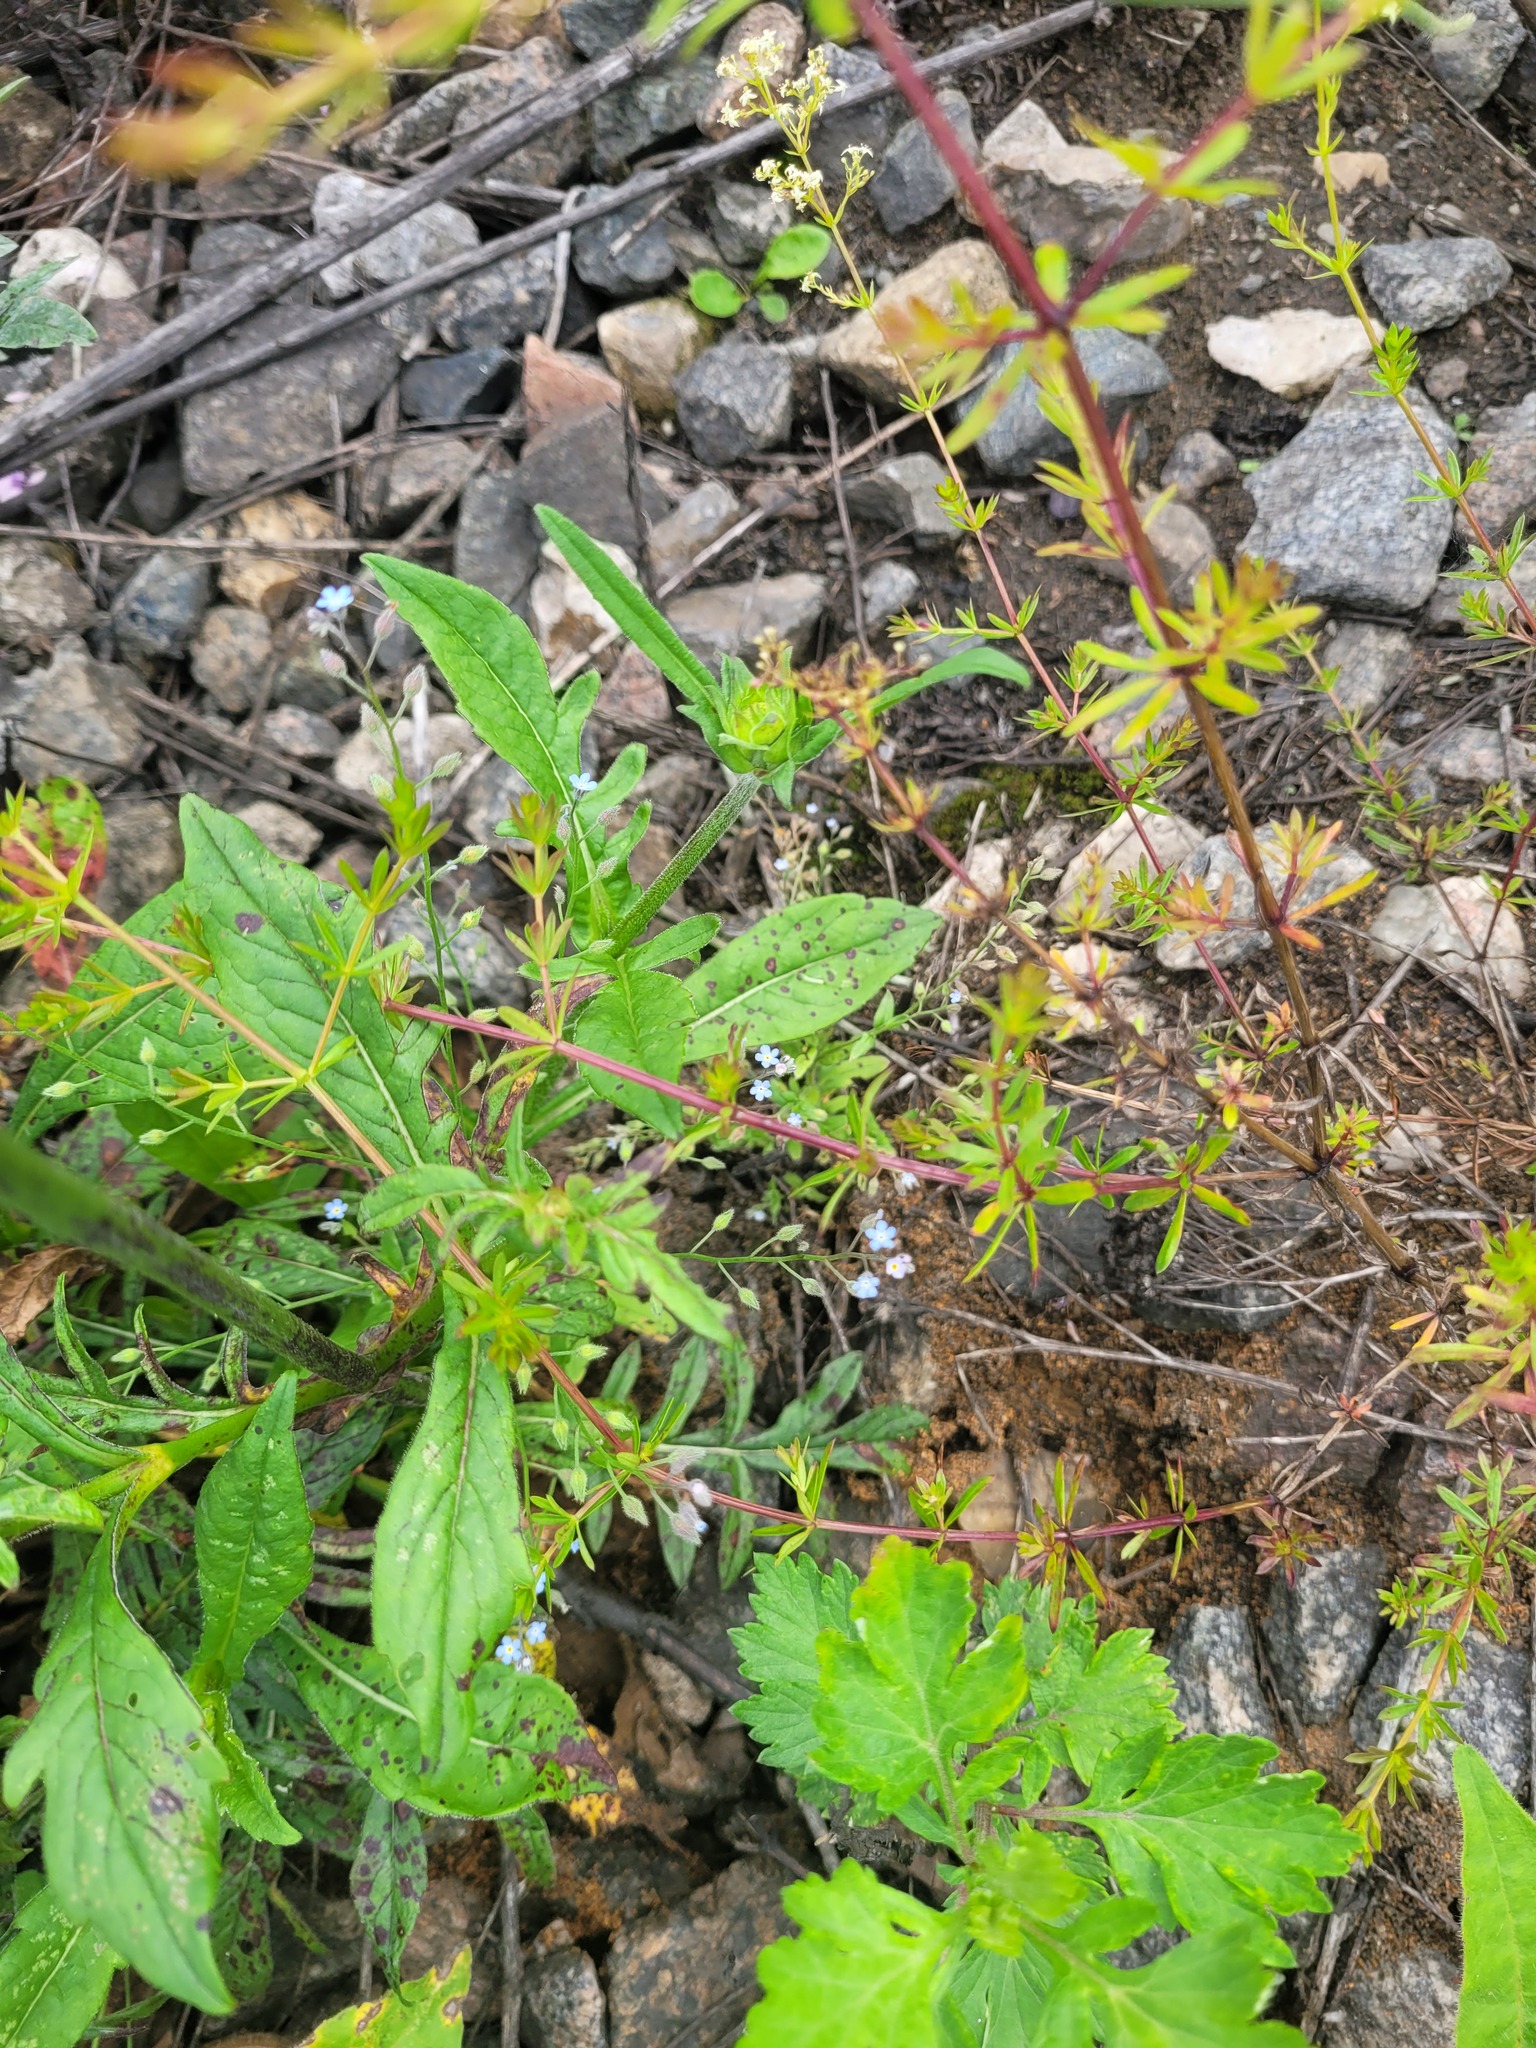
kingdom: Plantae
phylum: Tracheophyta
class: Magnoliopsida
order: Boraginales
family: Boraginaceae
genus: Myosotis
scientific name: Myosotis arvensis
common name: Field forget-me-not
